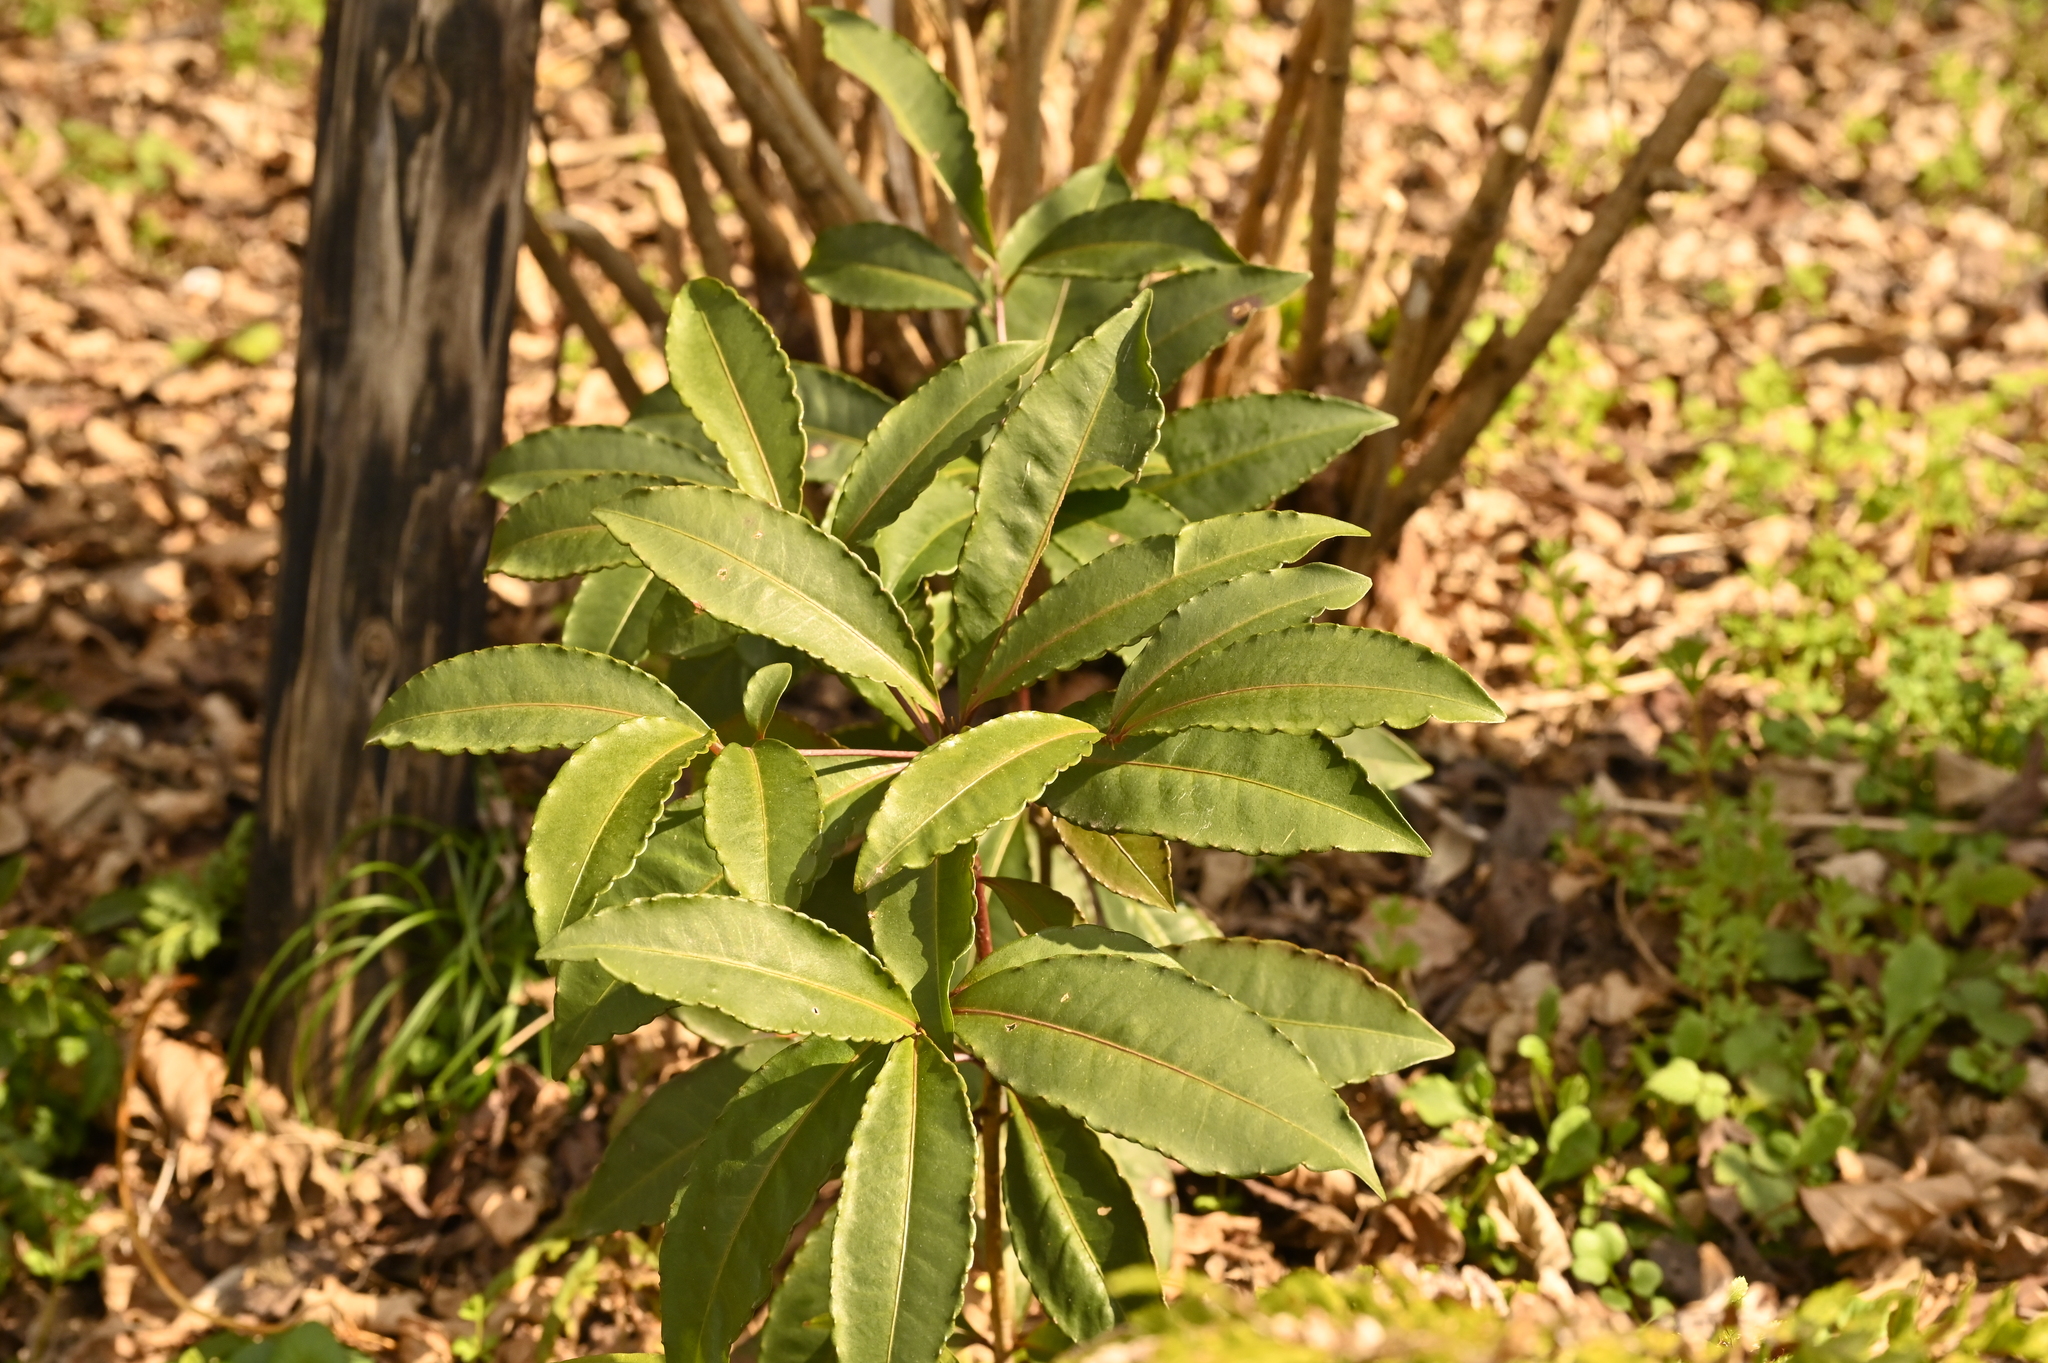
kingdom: Plantae
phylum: Tracheophyta
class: Magnoliopsida
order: Ericales
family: Primulaceae
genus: Ardisia
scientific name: Ardisia crenata
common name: Hen's eyes
